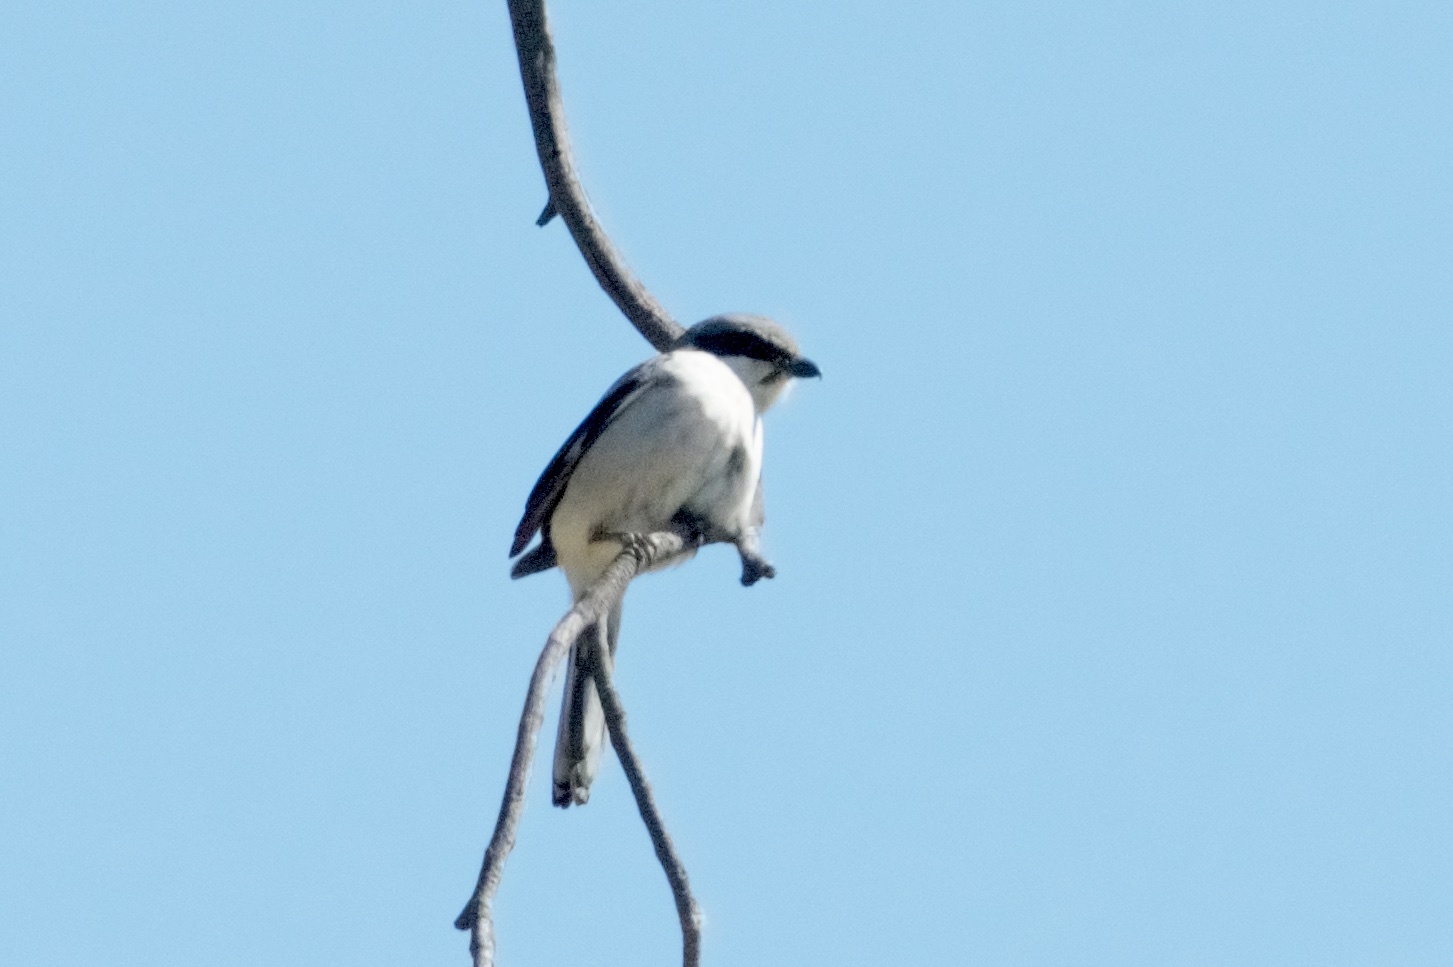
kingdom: Animalia
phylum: Chordata
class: Aves
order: Passeriformes
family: Laniidae
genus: Lanius
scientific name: Lanius ludovicianus
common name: Loggerhead shrike
